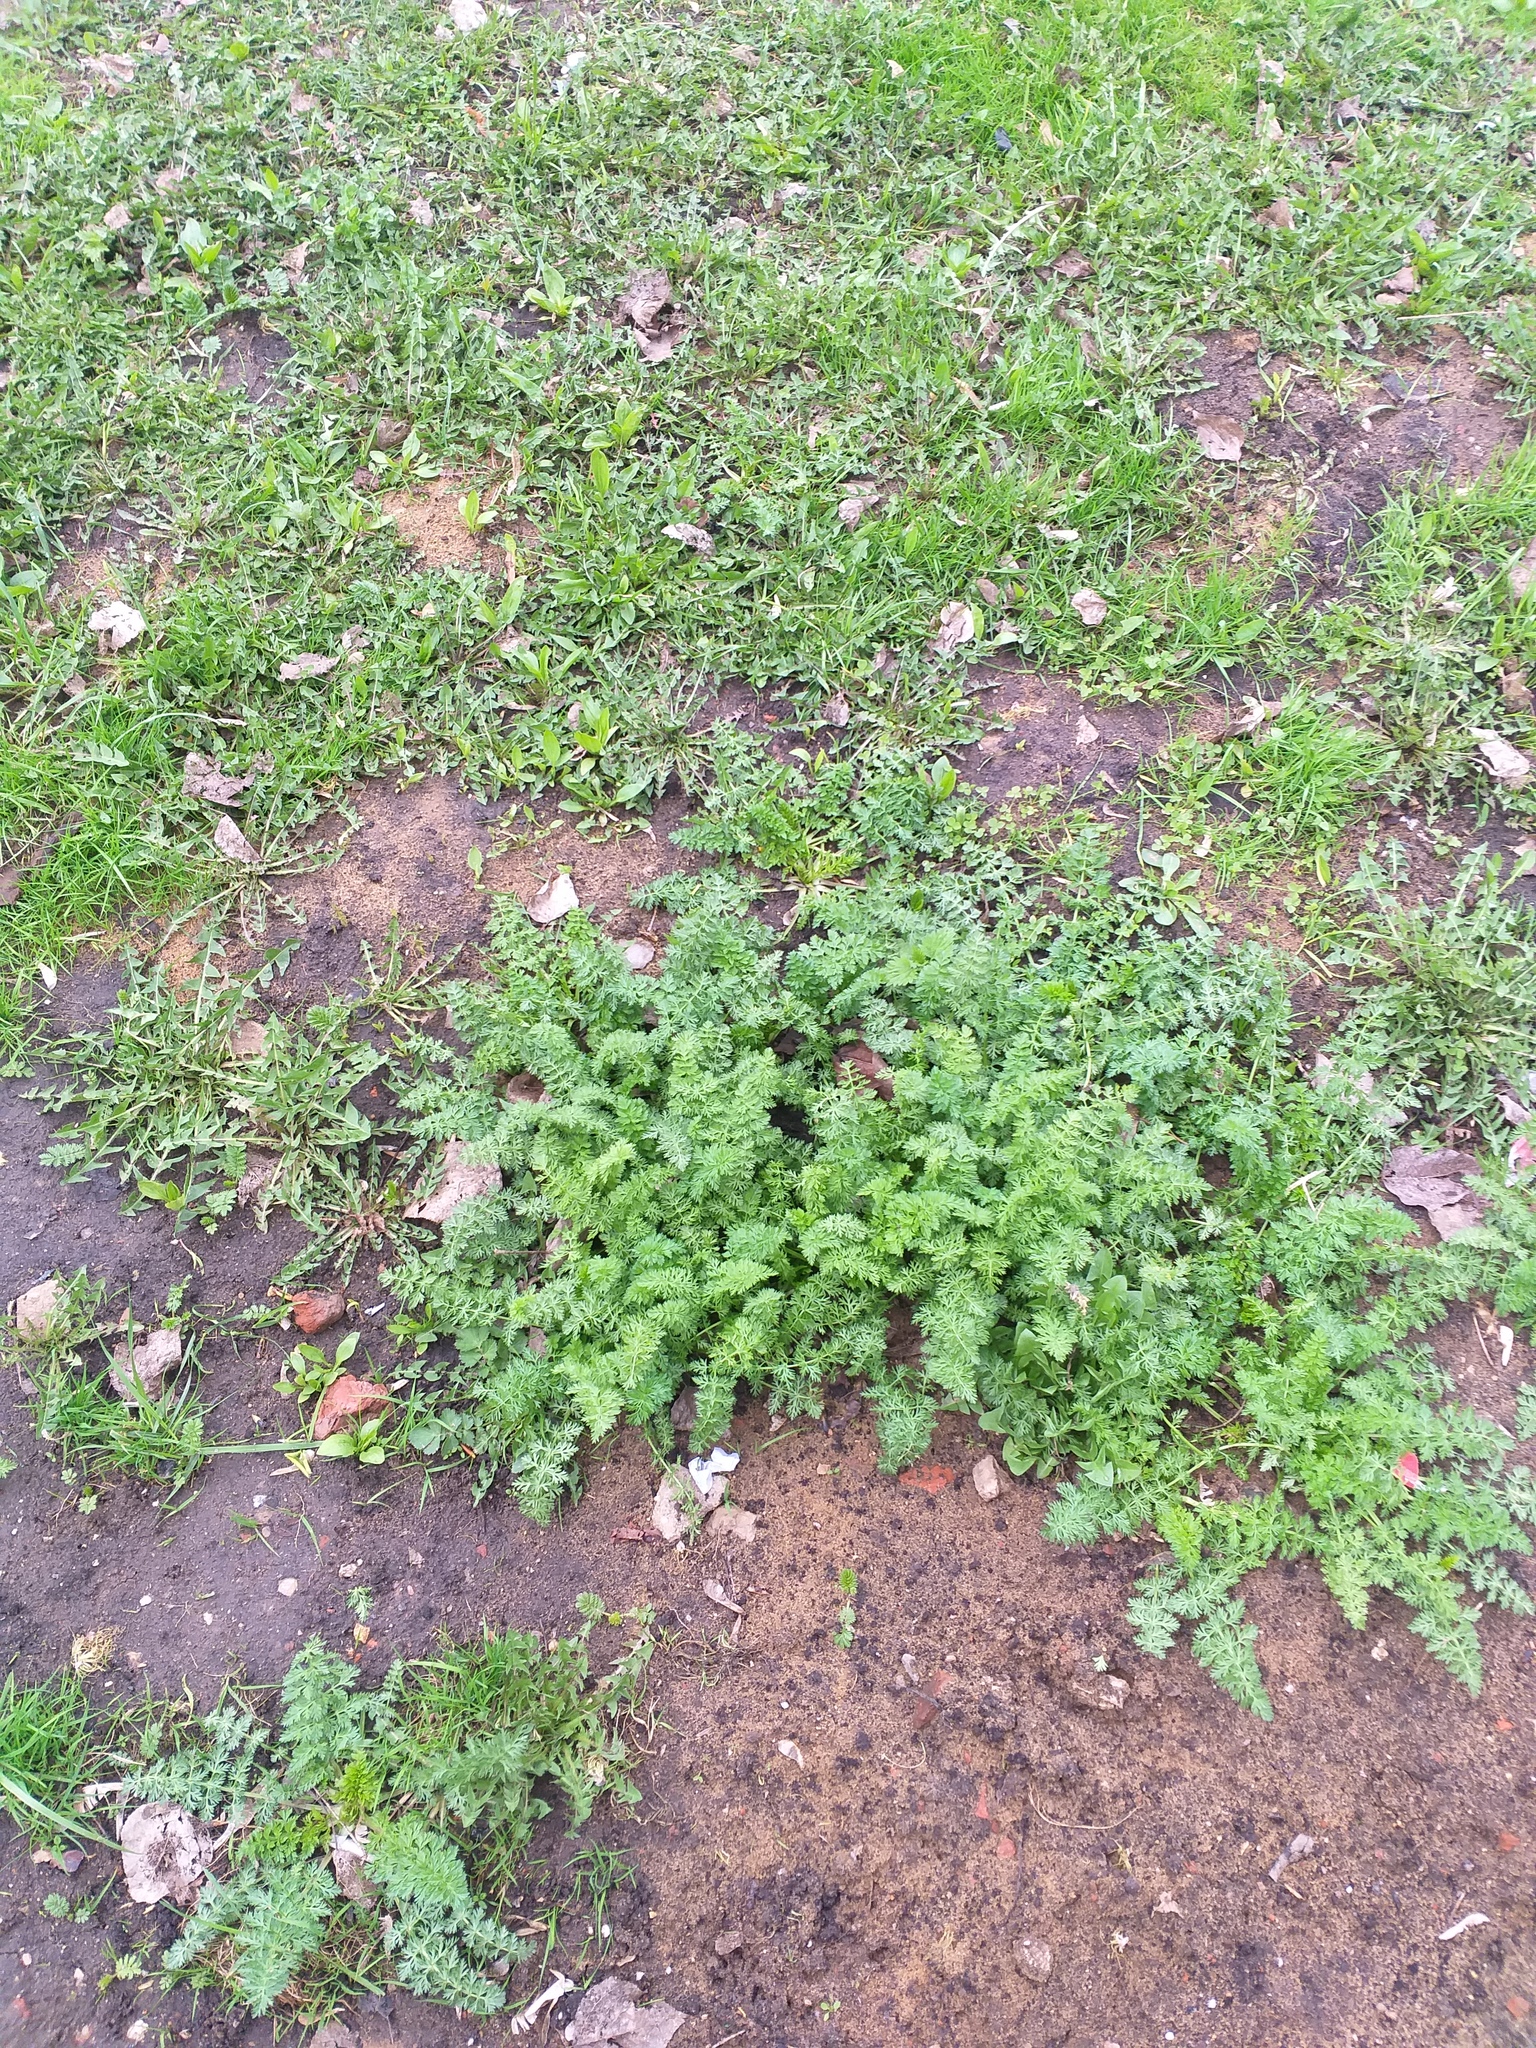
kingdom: Plantae
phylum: Tracheophyta
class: Magnoliopsida
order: Apiales
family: Apiaceae
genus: Carum
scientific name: Carum carvi
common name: Caraway
